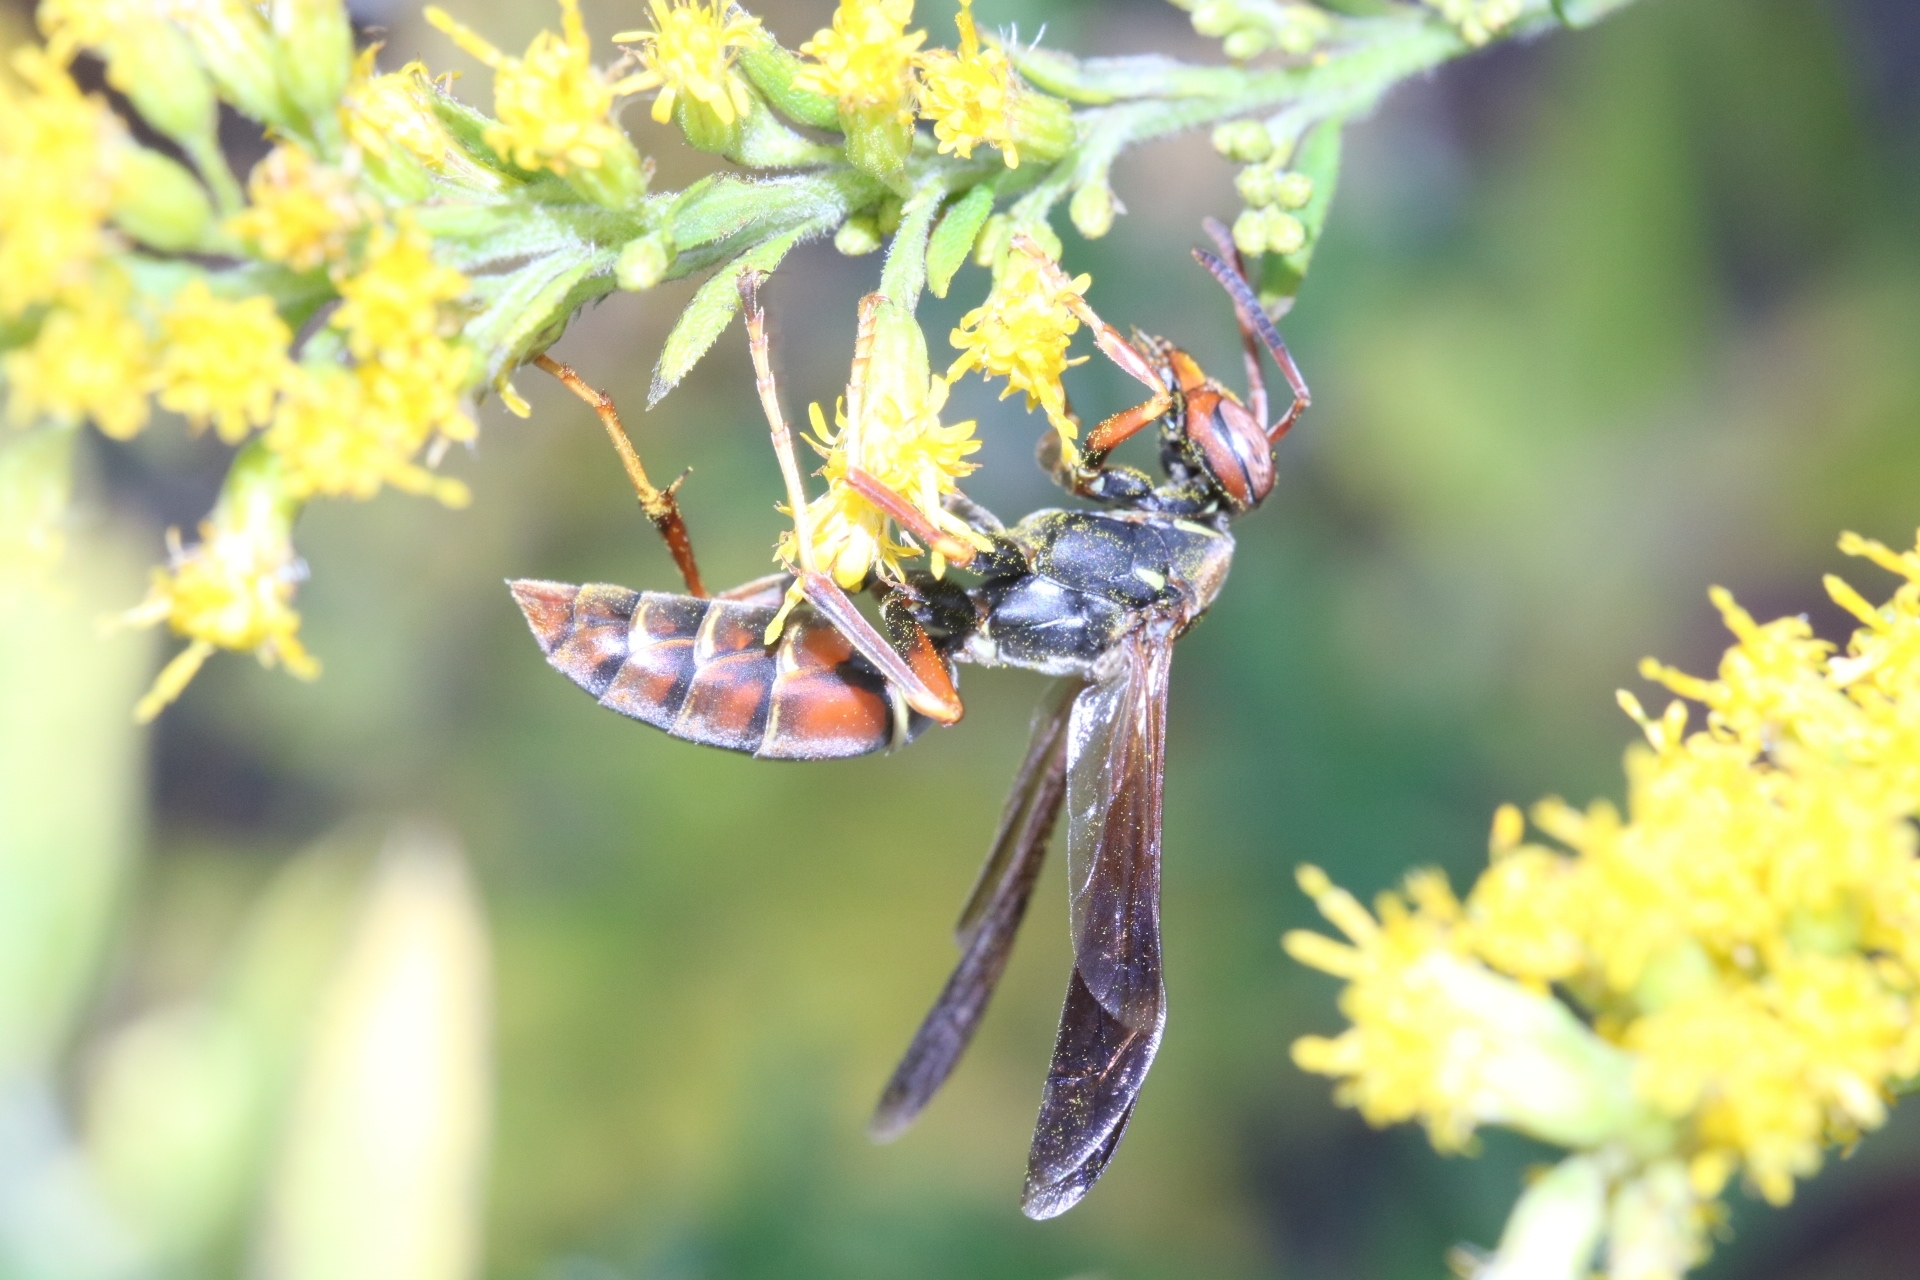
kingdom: Animalia
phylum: Arthropoda
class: Insecta
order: Hymenoptera
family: Eumenidae
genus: Polistes
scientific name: Polistes fuscatus
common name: Dark paper wasp
